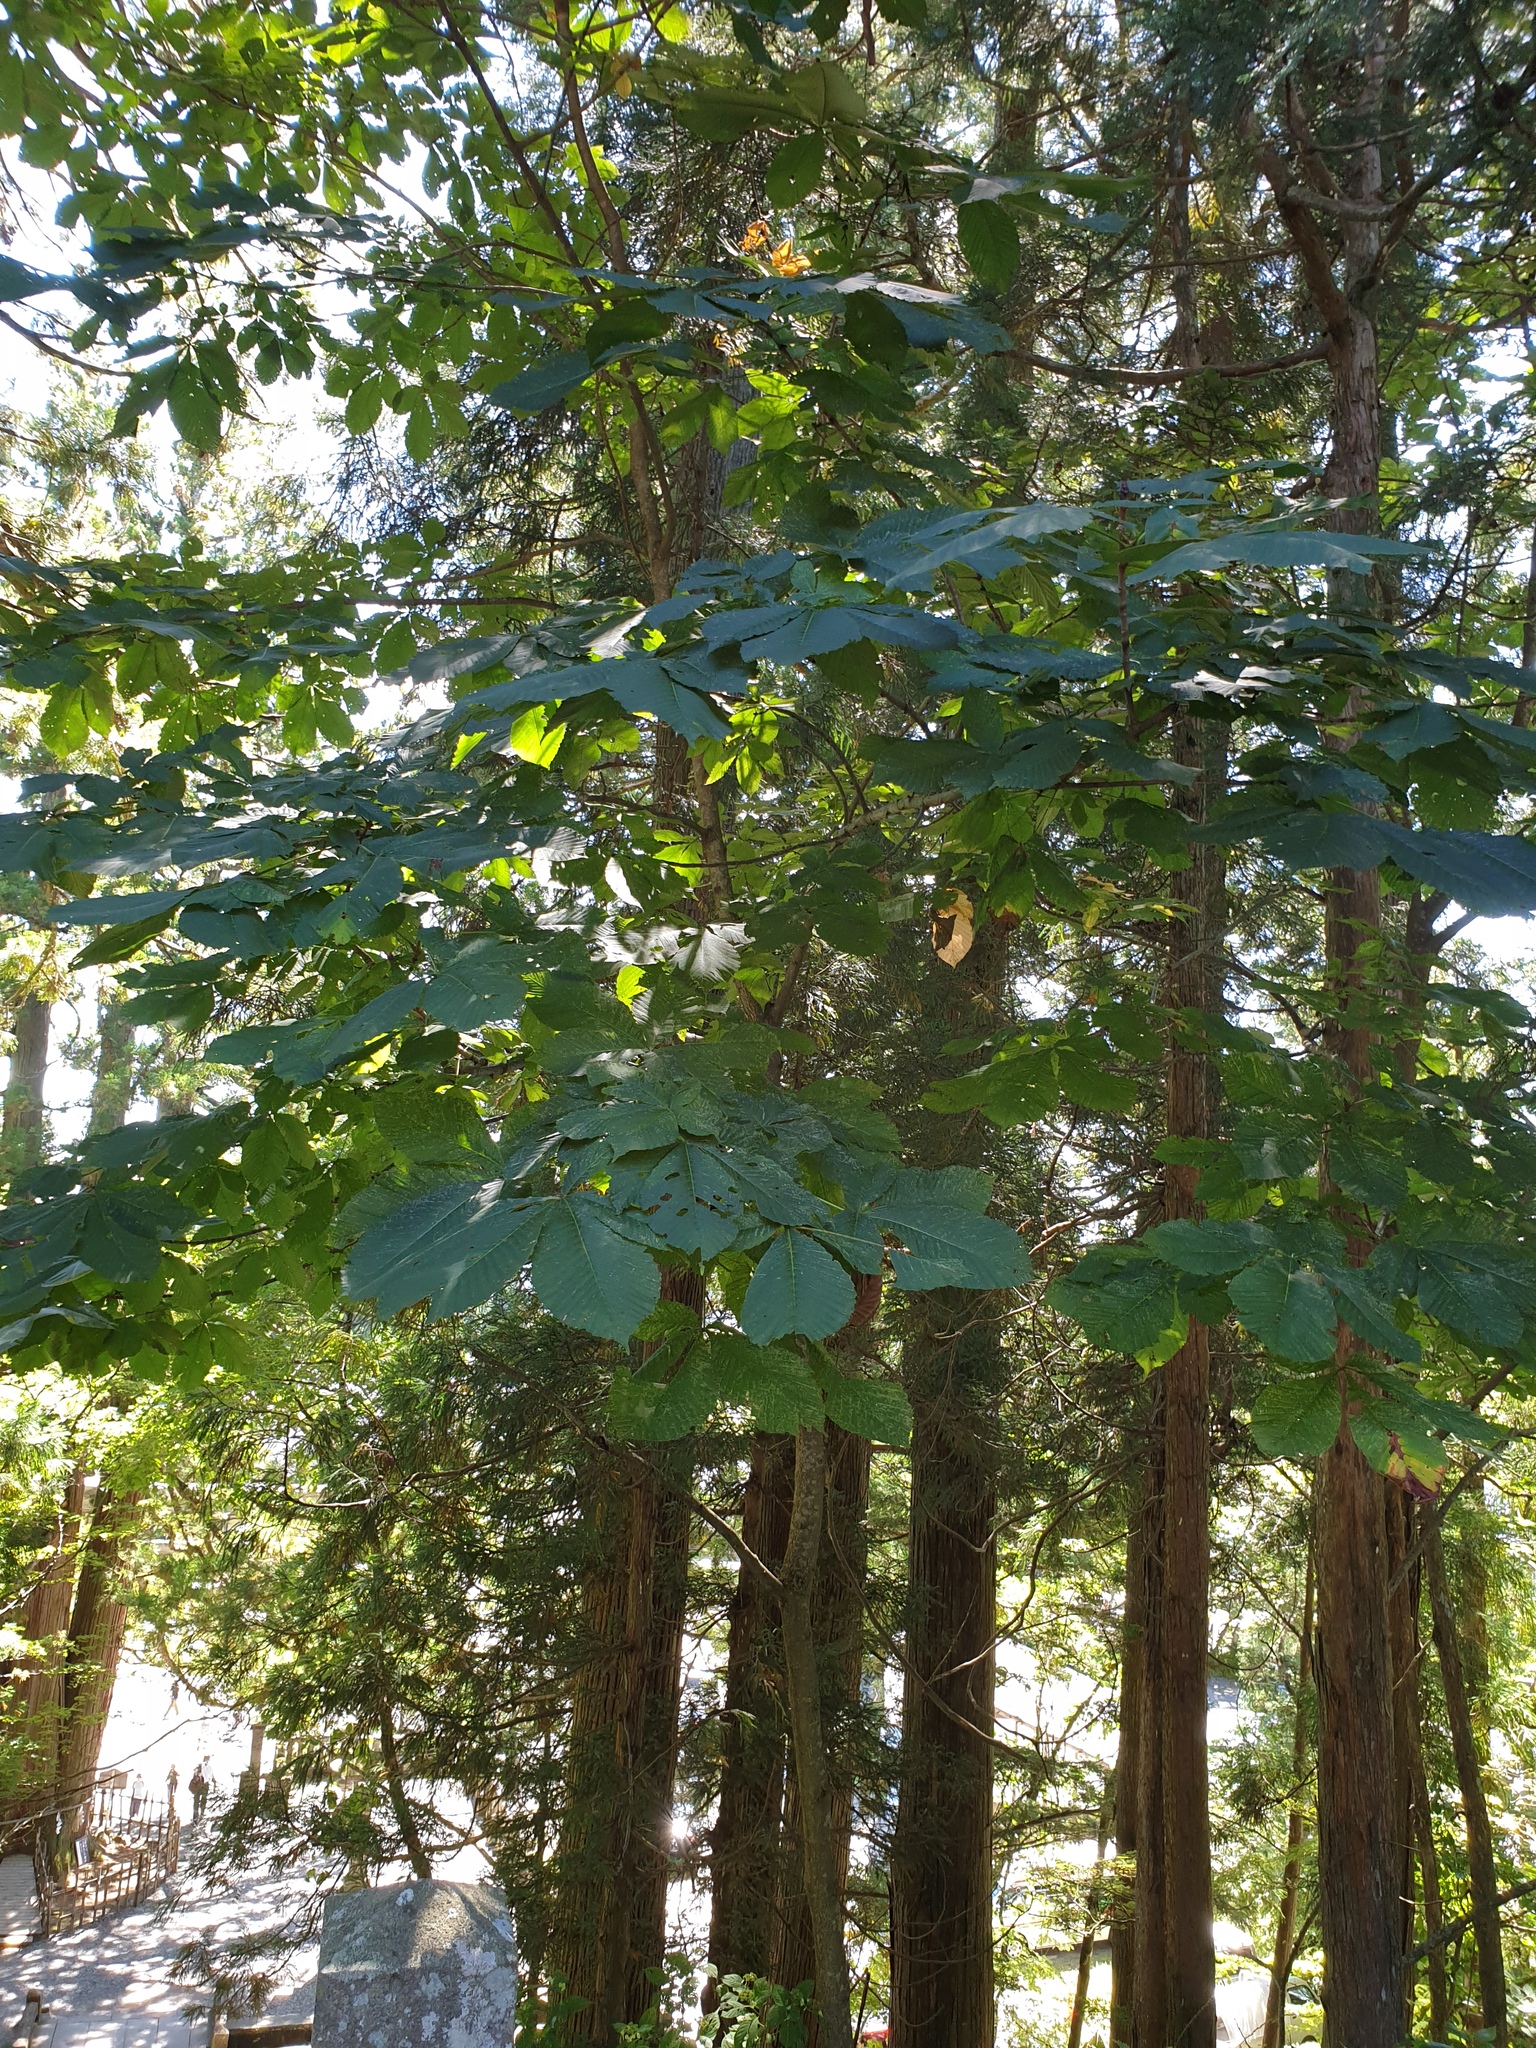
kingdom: Plantae
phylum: Tracheophyta
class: Magnoliopsida
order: Sapindales
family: Sapindaceae
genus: Aesculus
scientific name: Aesculus turbinata
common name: Japanese horse-chestnut
